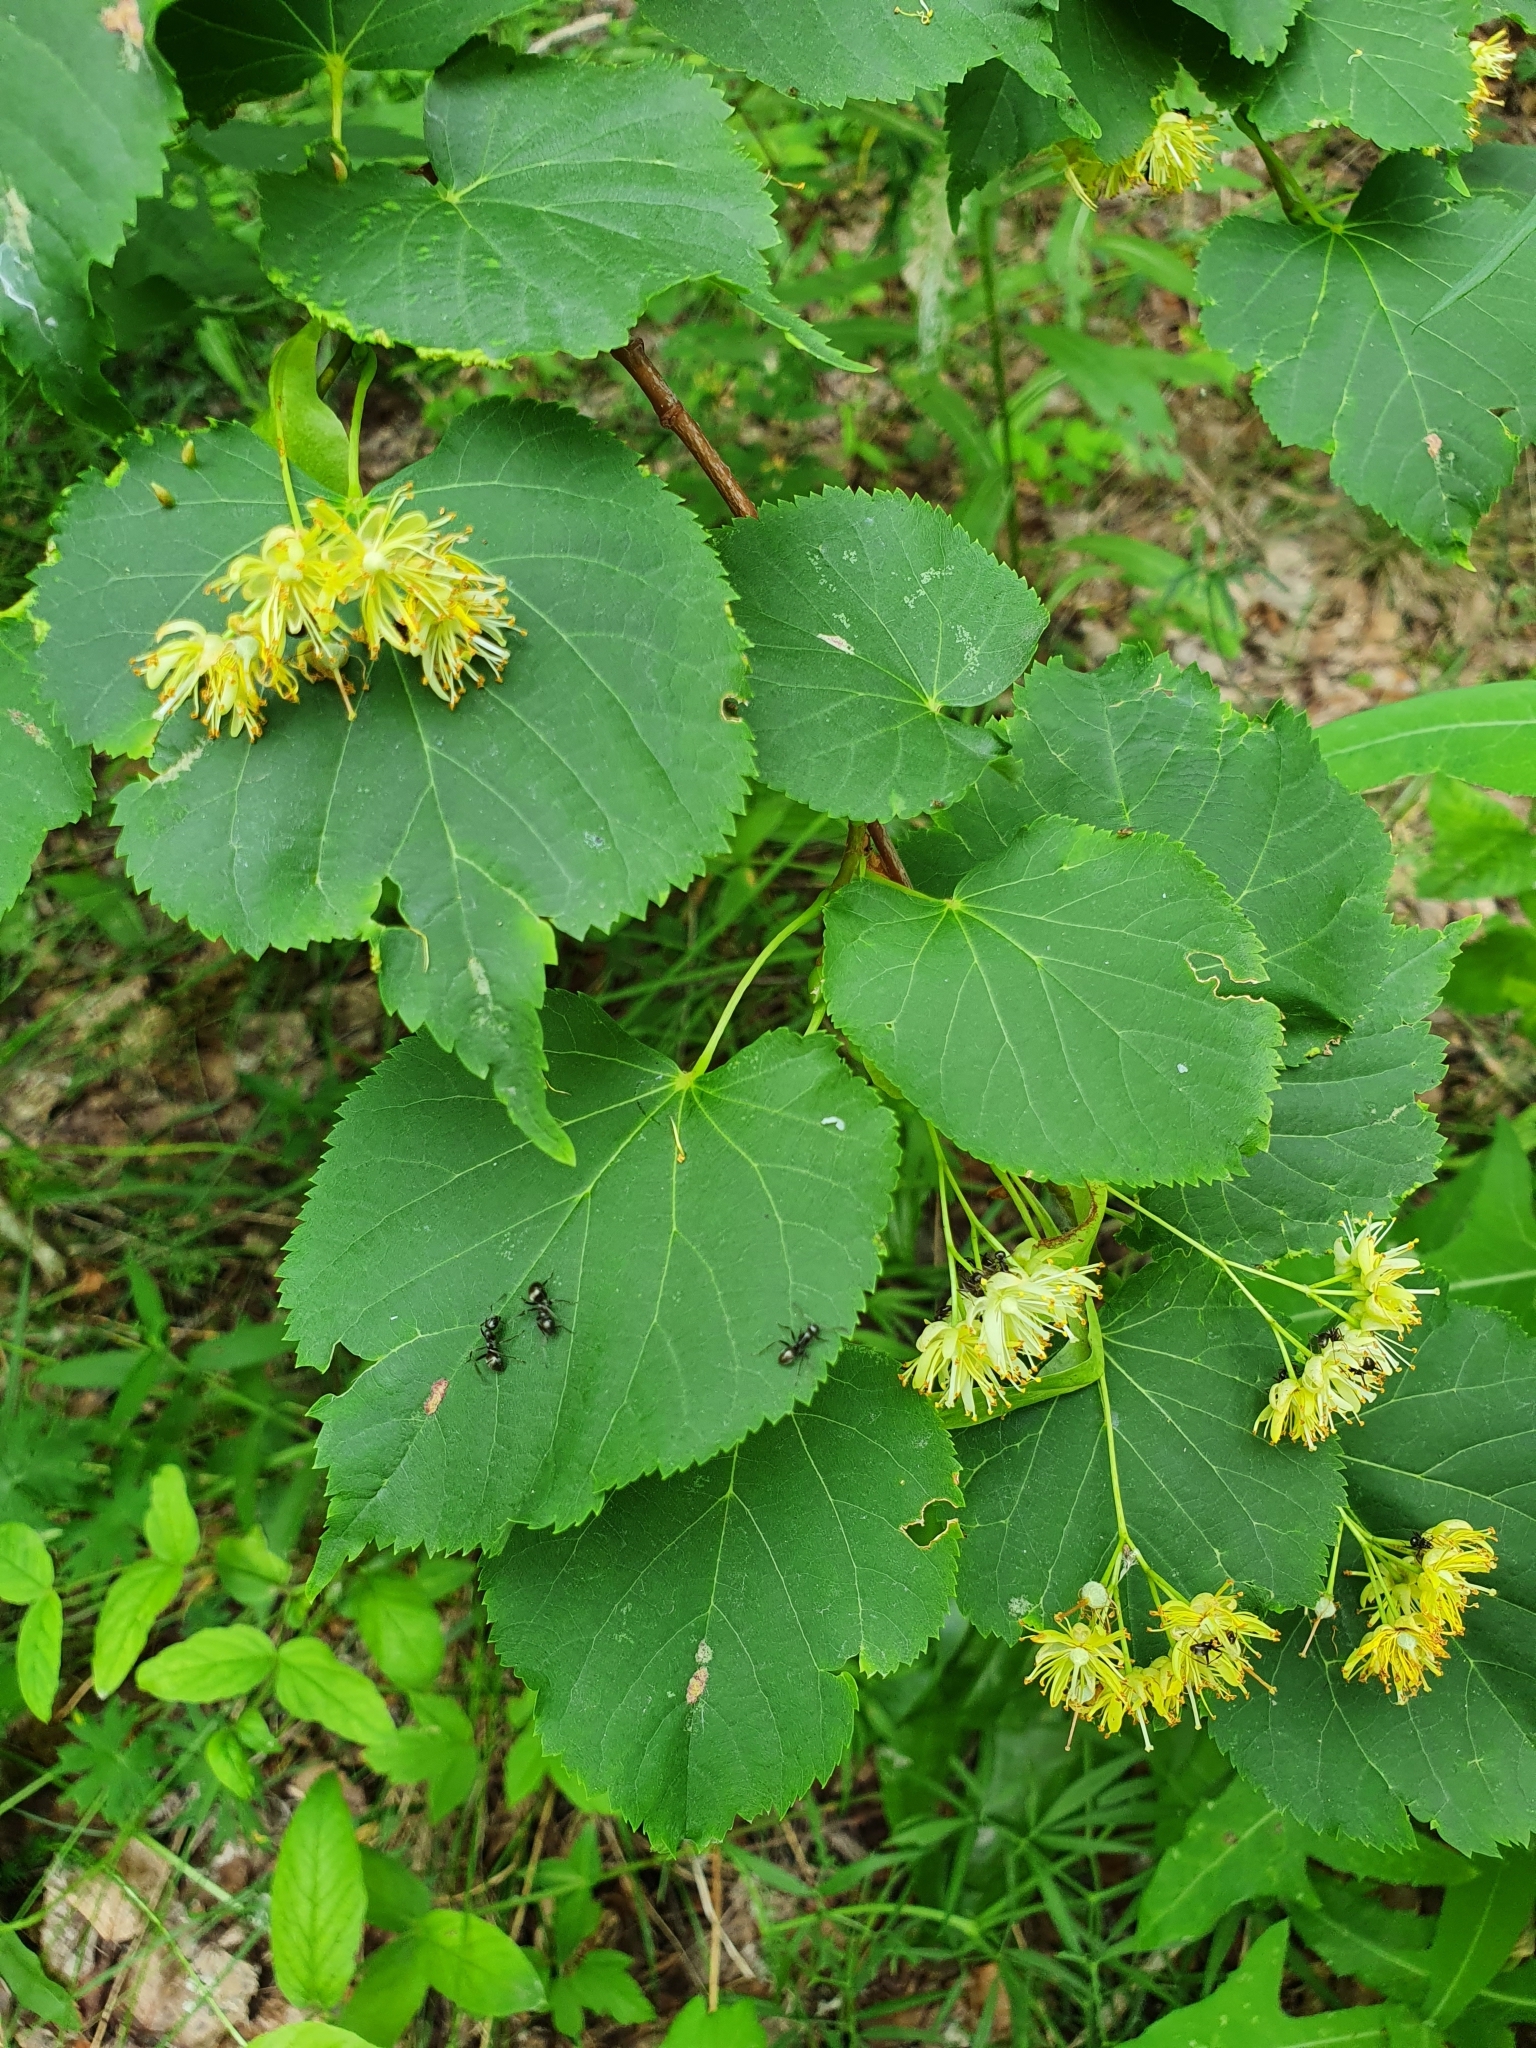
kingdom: Plantae
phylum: Tracheophyta
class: Magnoliopsida
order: Malvales
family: Malvaceae
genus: Tilia
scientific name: Tilia cordata
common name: Small-leaved lime
